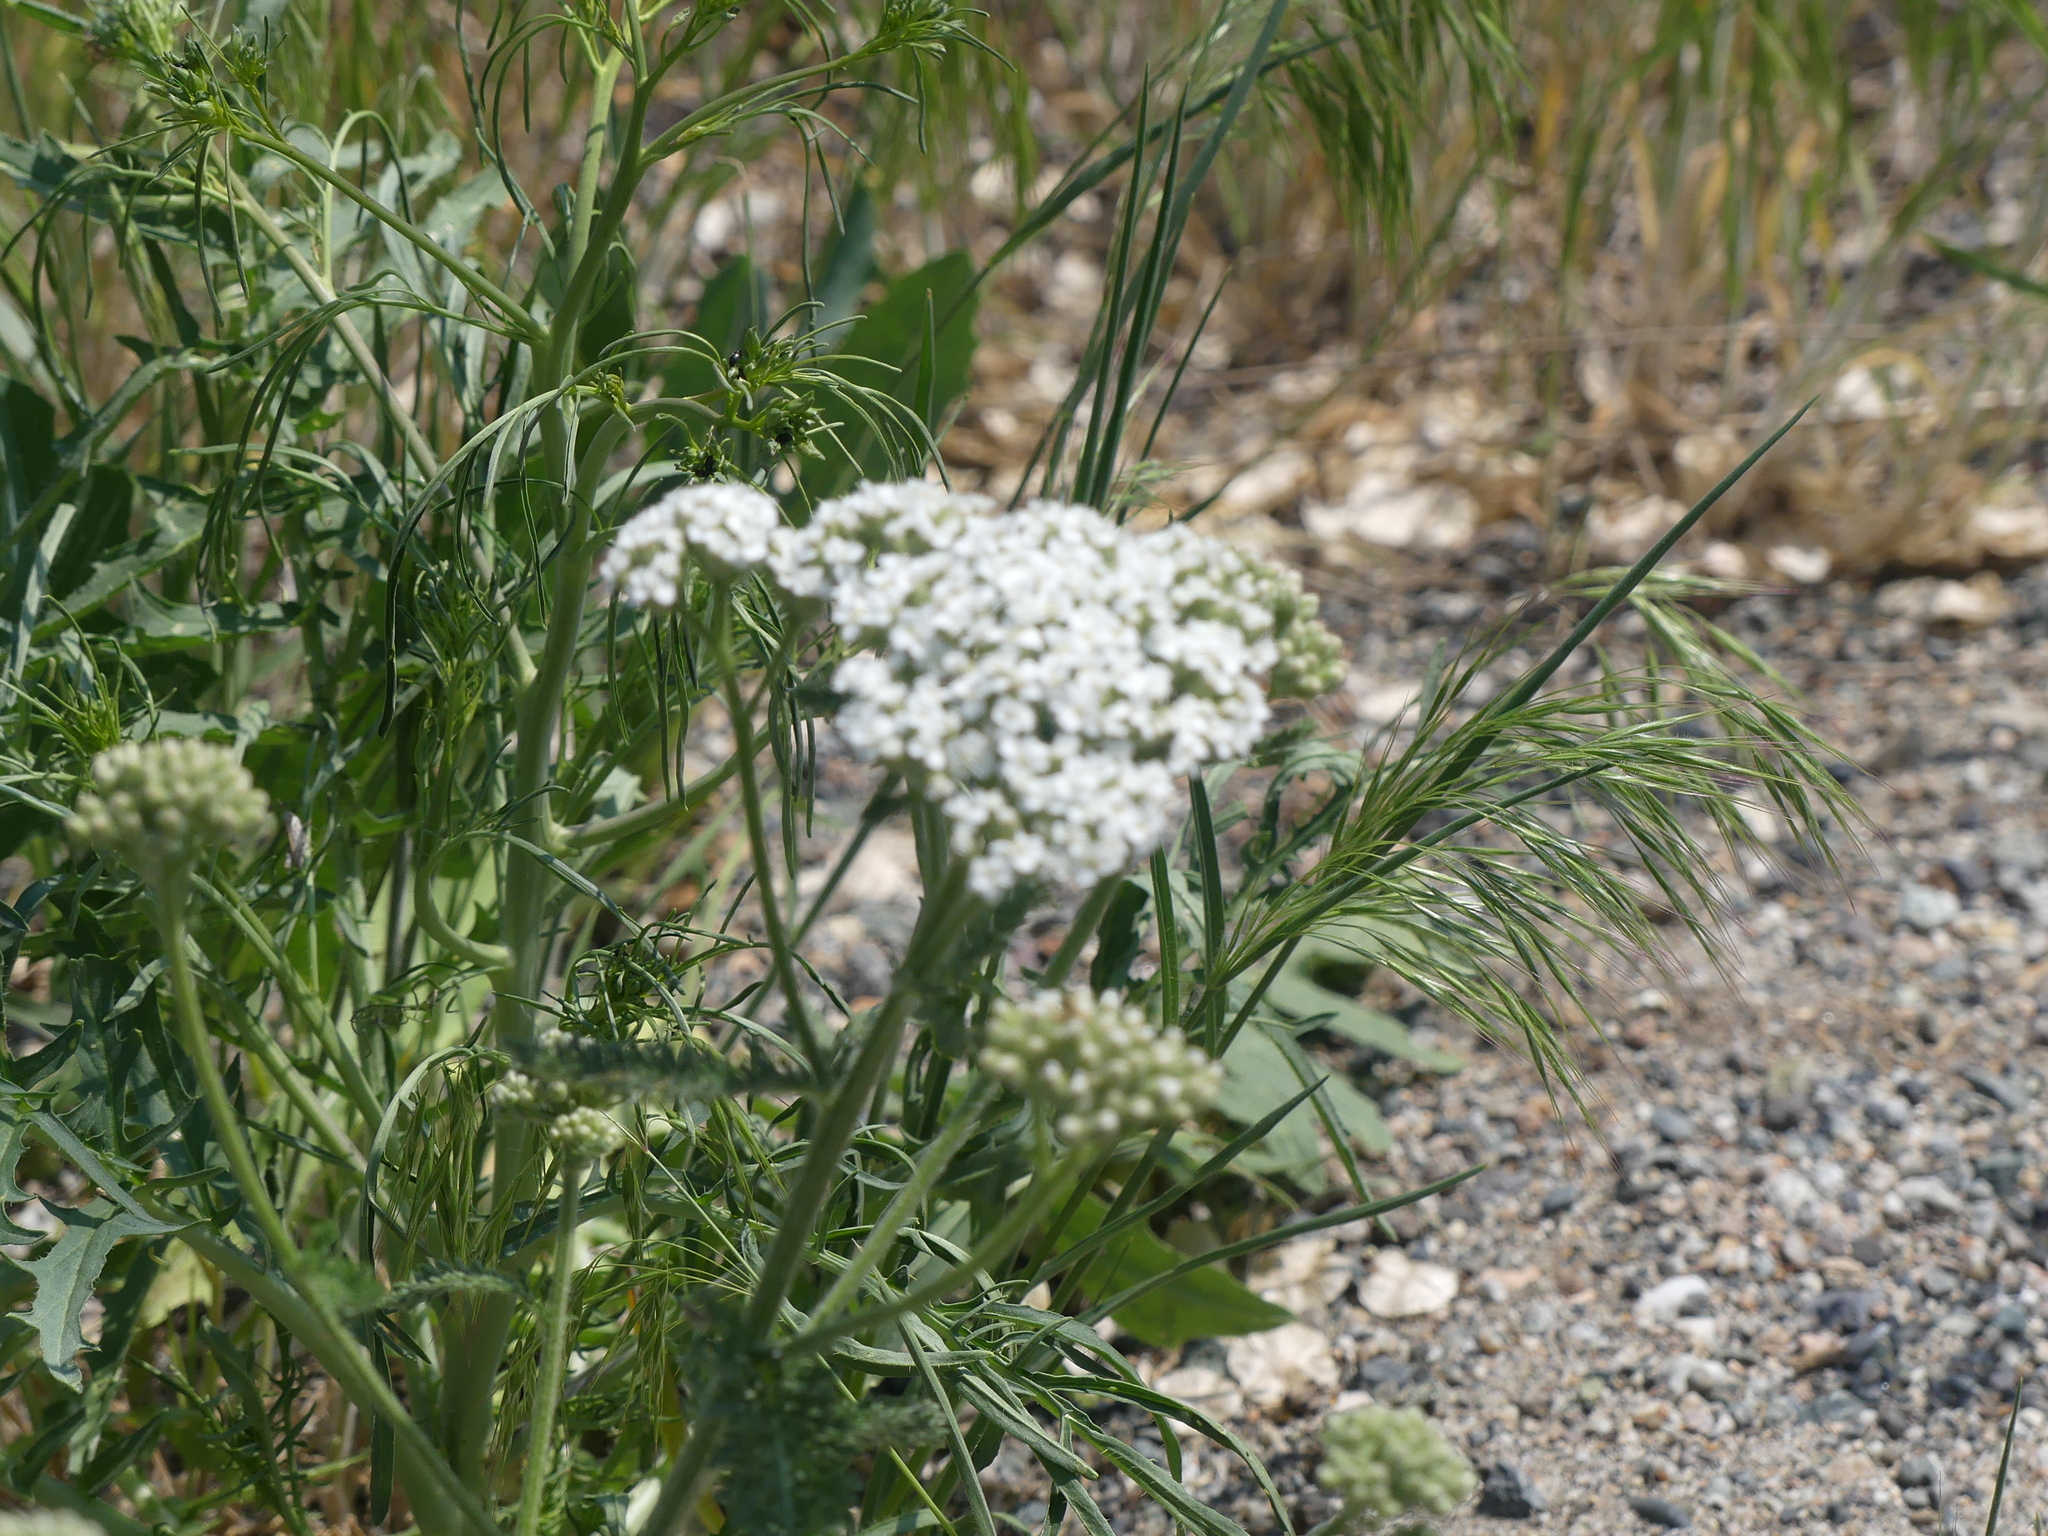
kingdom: Plantae
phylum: Tracheophyta
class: Magnoliopsida
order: Asterales
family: Asteraceae
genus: Achillea
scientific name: Achillea millefolium
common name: Yarrow
